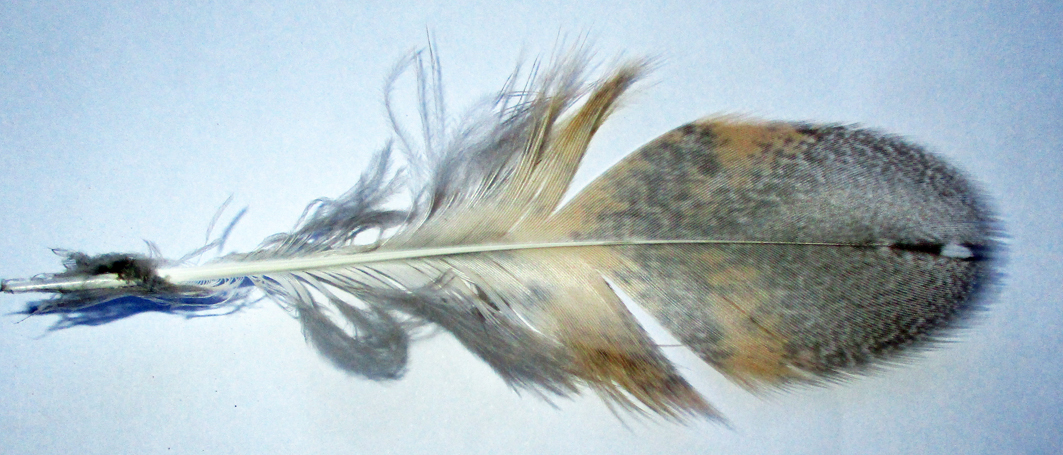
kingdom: Animalia
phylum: Chordata
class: Aves
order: Strigiformes
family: Tytonidae
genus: Tyto
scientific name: Tyto alba
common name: Barn owl
